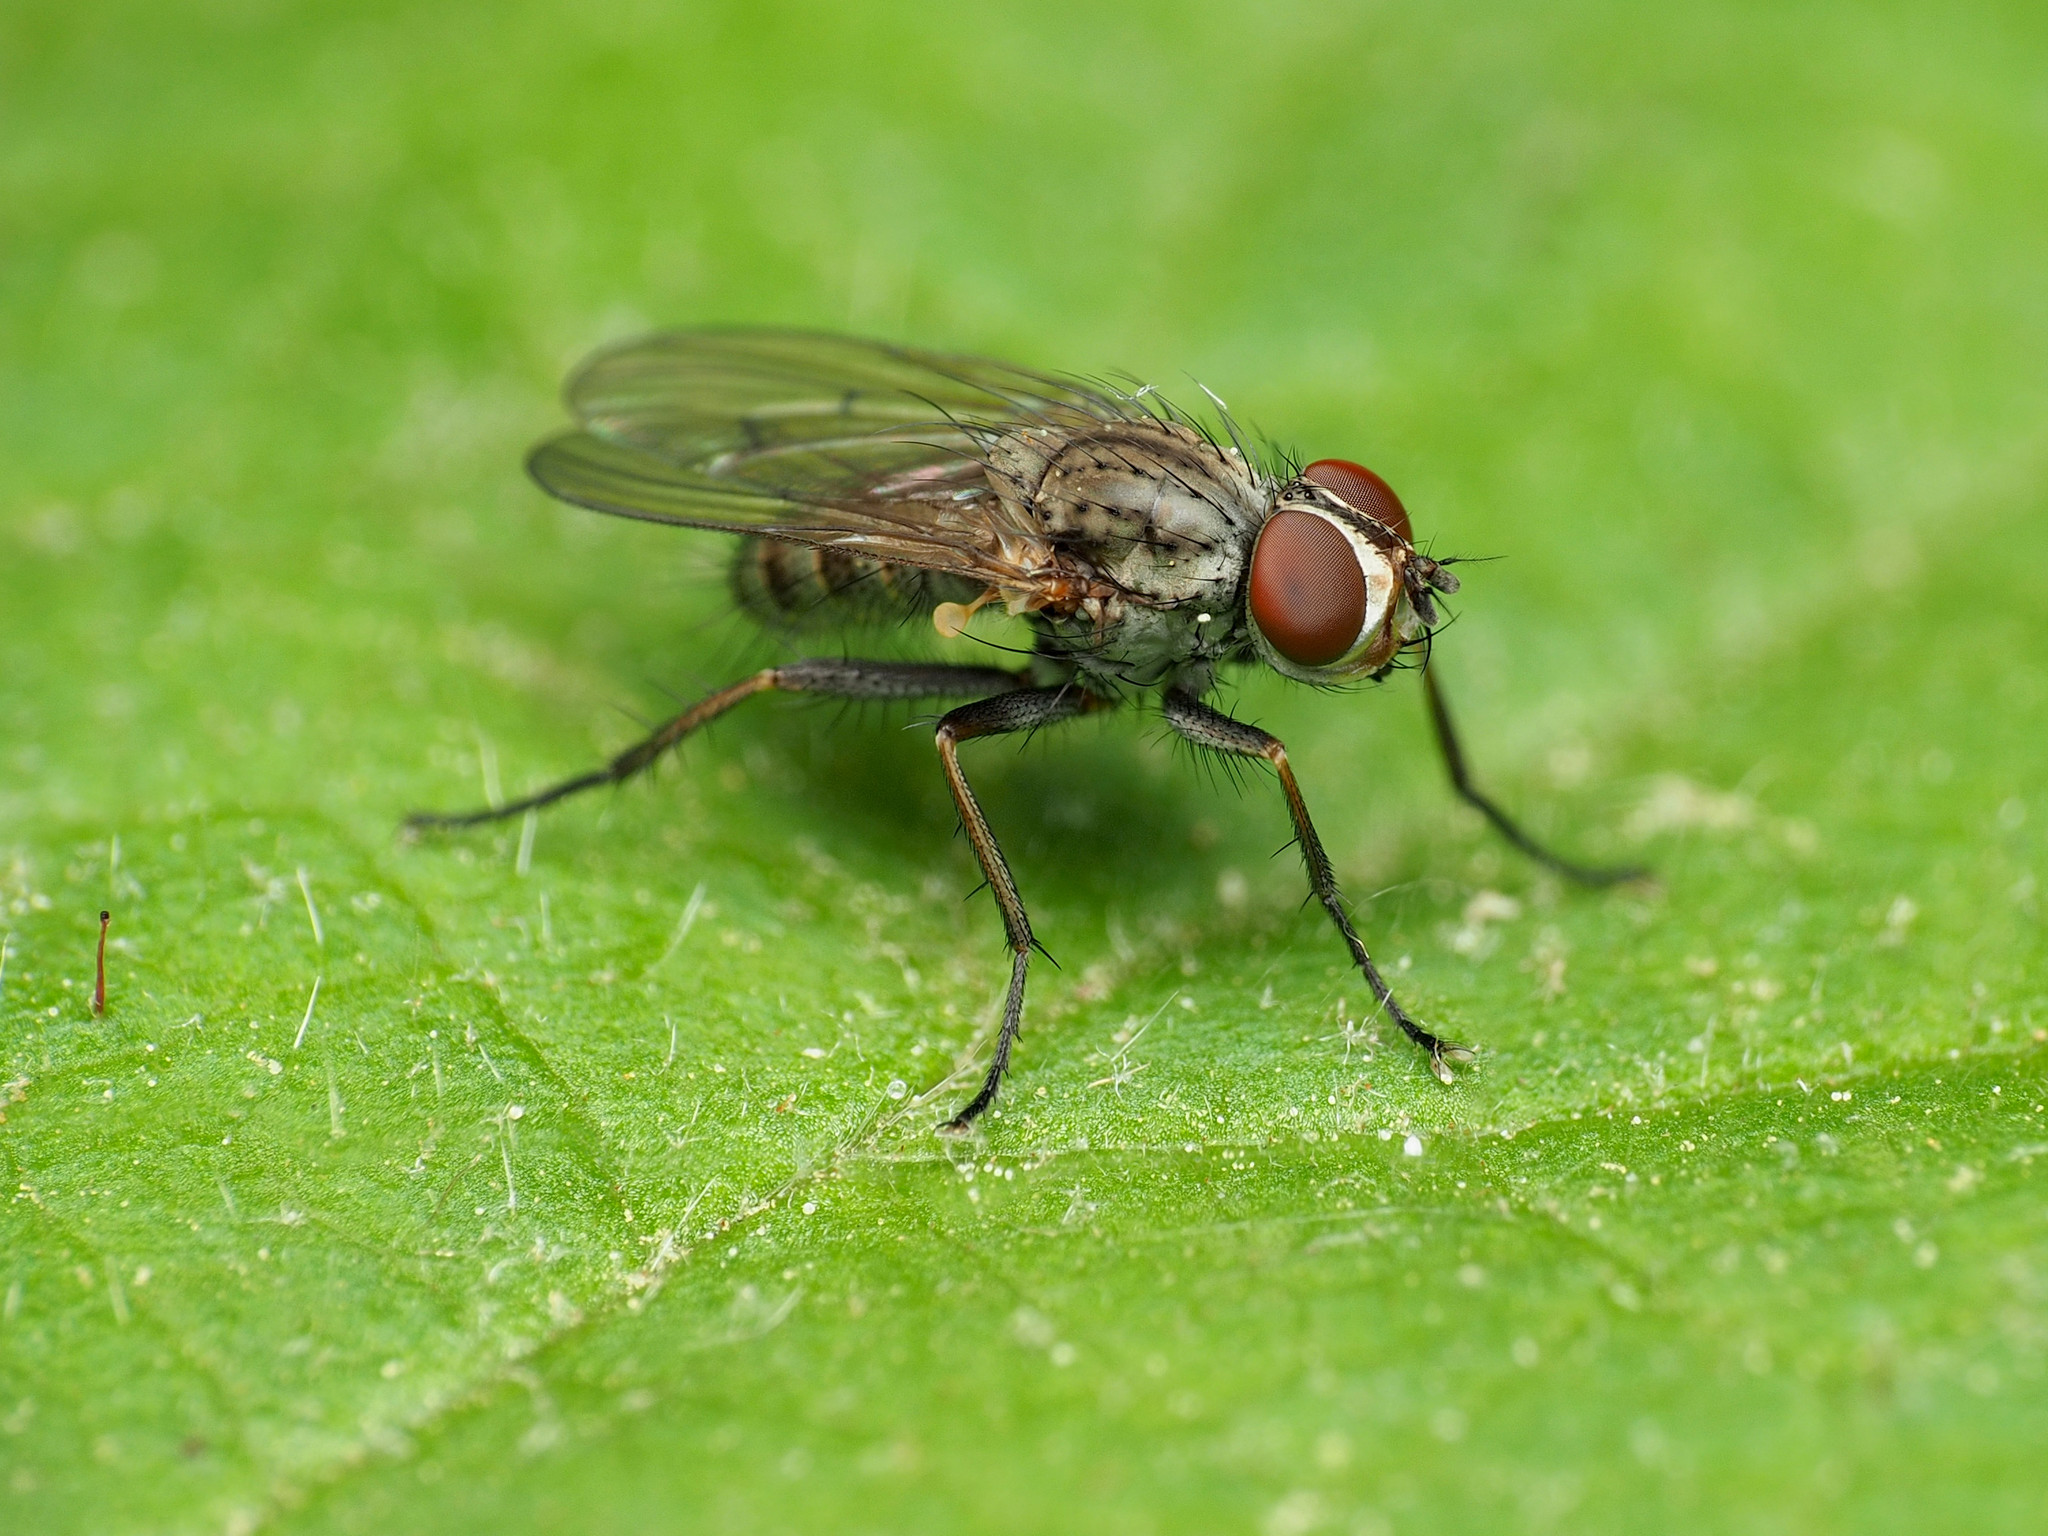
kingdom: Animalia
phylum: Arthropoda
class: Insecta
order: Diptera
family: Anthomyiidae
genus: Leucophora
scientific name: Leucophora johnsoni
